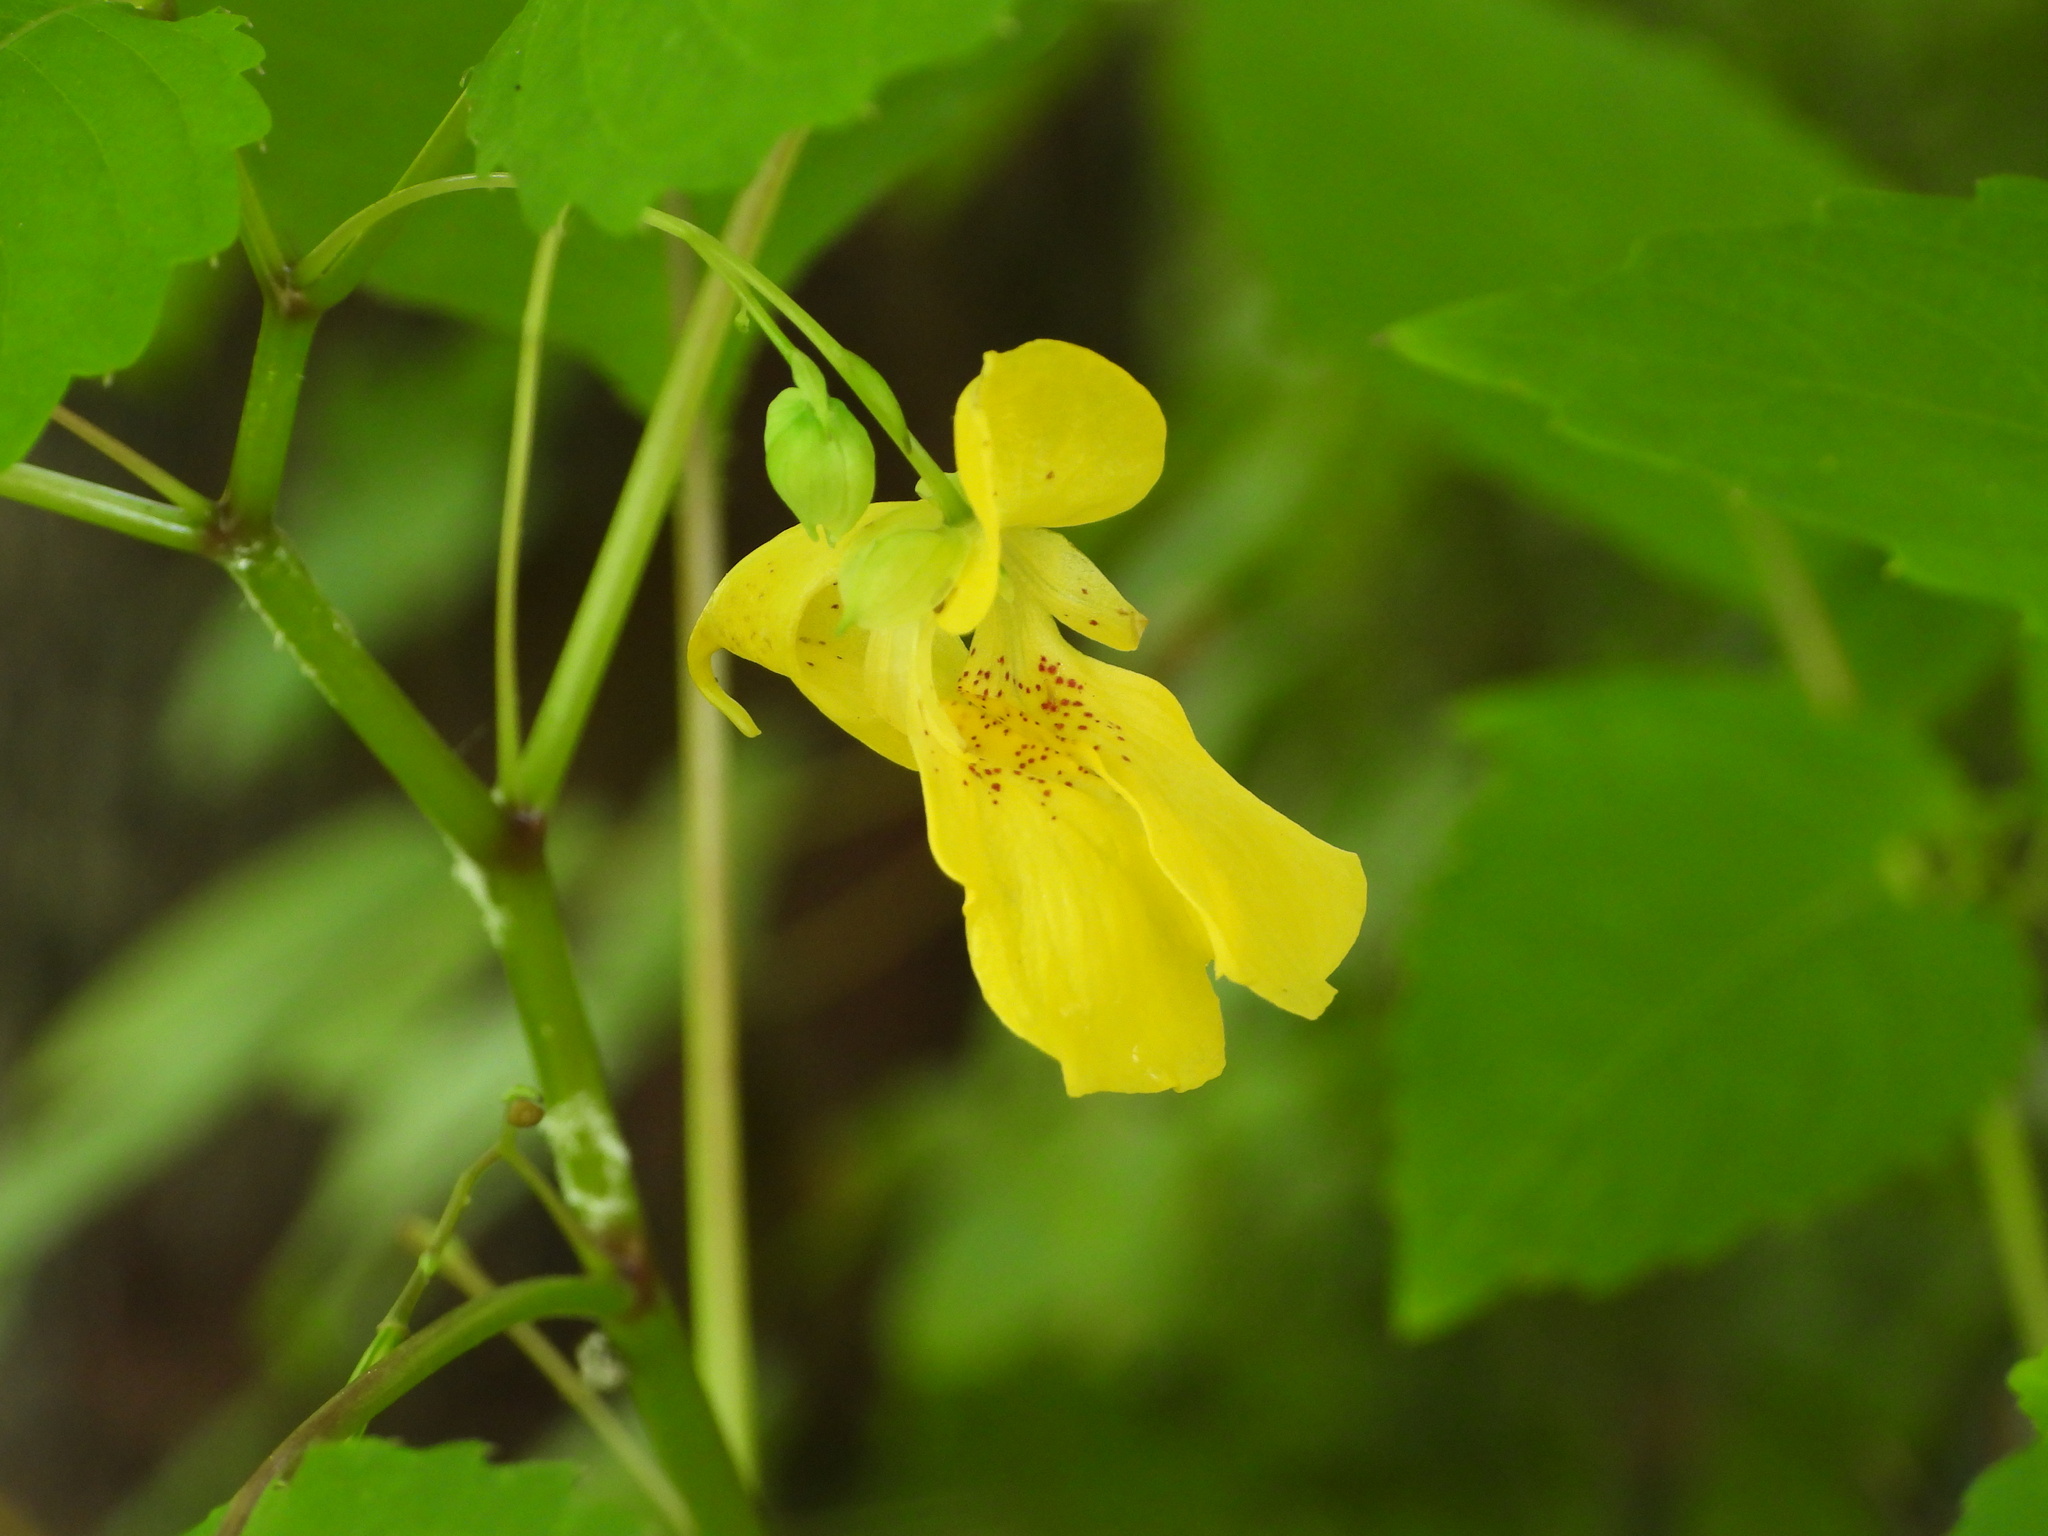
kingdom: Plantae
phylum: Tracheophyta
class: Magnoliopsida
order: Ericales
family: Balsaminaceae
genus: Impatiens
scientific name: Impatiens pallida
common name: Pale snapweed
